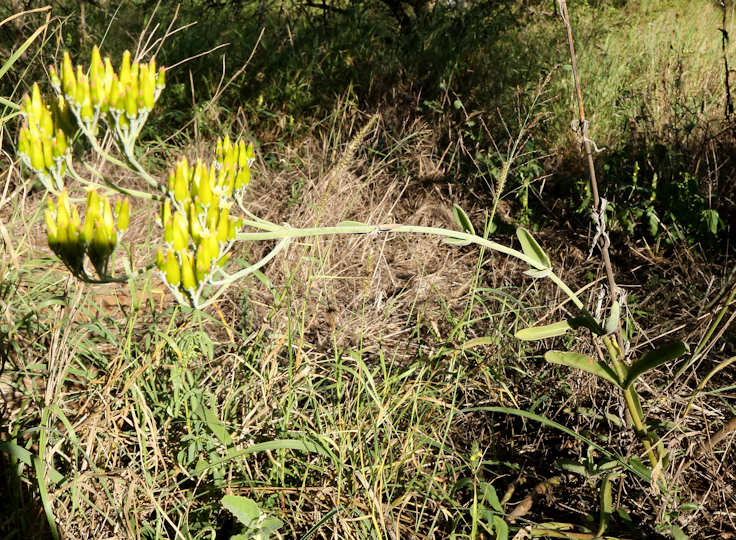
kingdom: Plantae
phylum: Tracheophyta
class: Magnoliopsida
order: Saxifragales
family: Crassulaceae
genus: Kalanchoe
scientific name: Kalanchoe brachyloba
